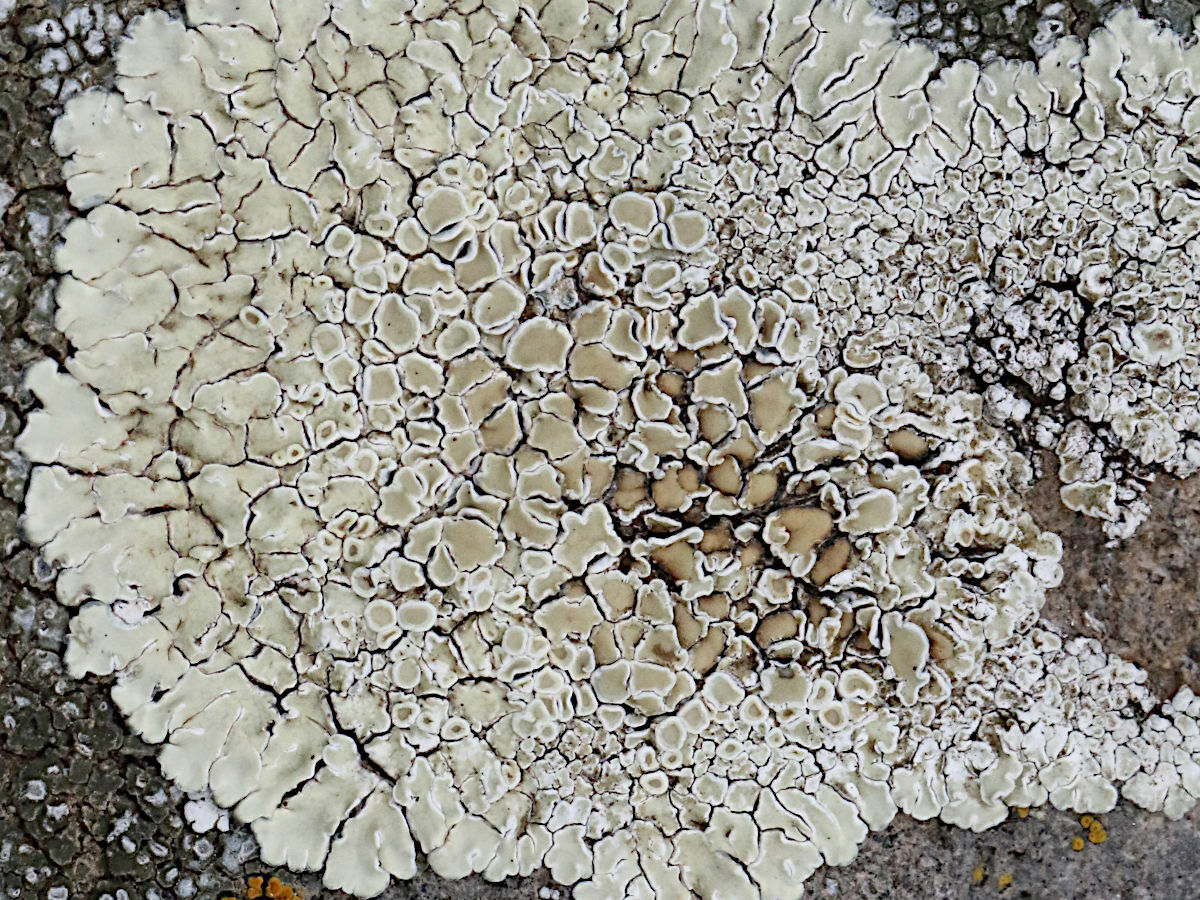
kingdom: Fungi
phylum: Ascomycota
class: Lecanoromycetes
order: Lecanorales
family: Lecanoraceae
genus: Protoparmeliopsis
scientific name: Protoparmeliopsis muralis
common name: Stonewall rim lichen
